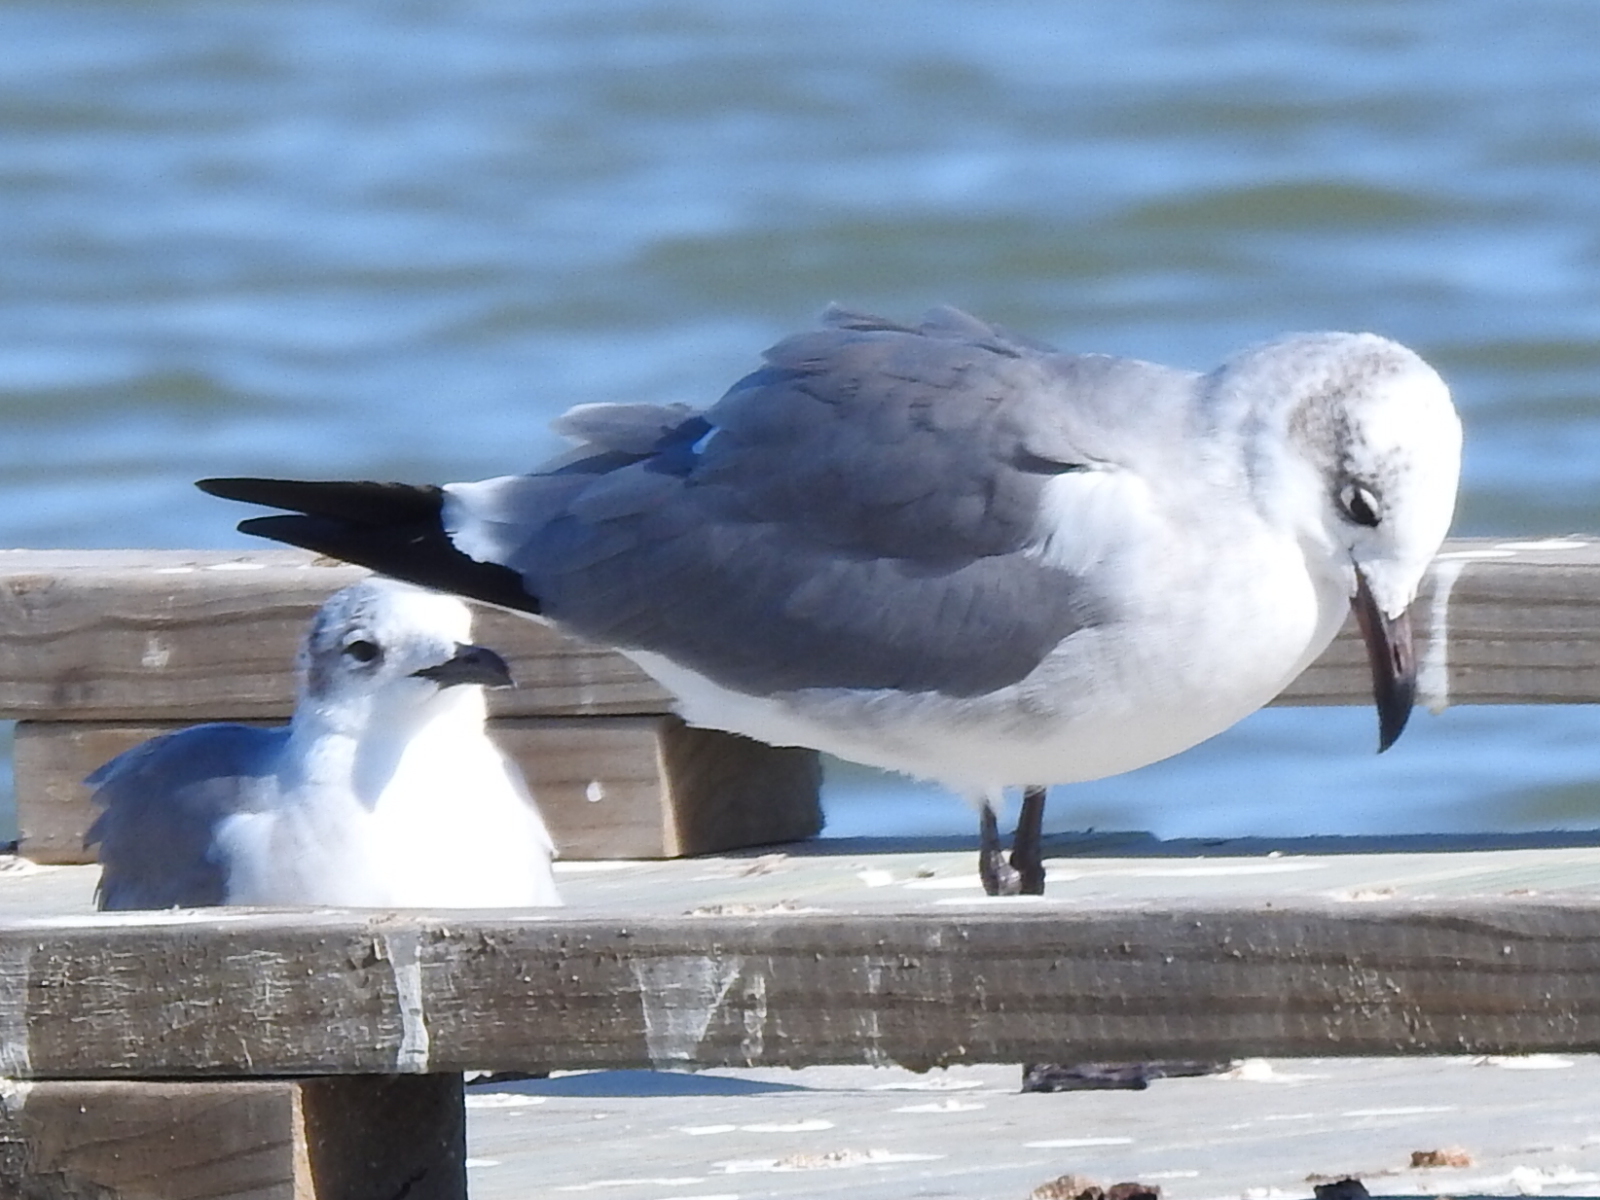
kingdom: Animalia
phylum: Chordata
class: Aves
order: Charadriiformes
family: Laridae
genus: Leucophaeus
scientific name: Leucophaeus atricilla
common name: Laughing gull
